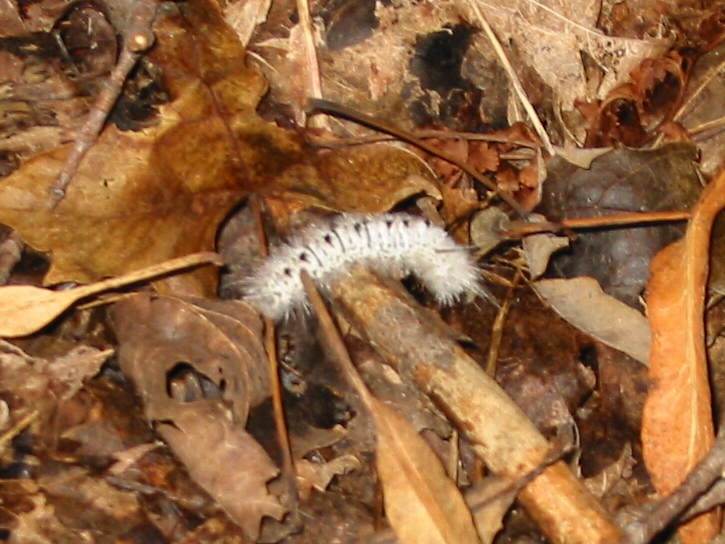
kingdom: Animalia
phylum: Arthropoda
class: Insecta
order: Lepidoptera
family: Erebidae
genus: Lophocampa
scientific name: Lophocampa caryae
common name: Hickory tussock moth
